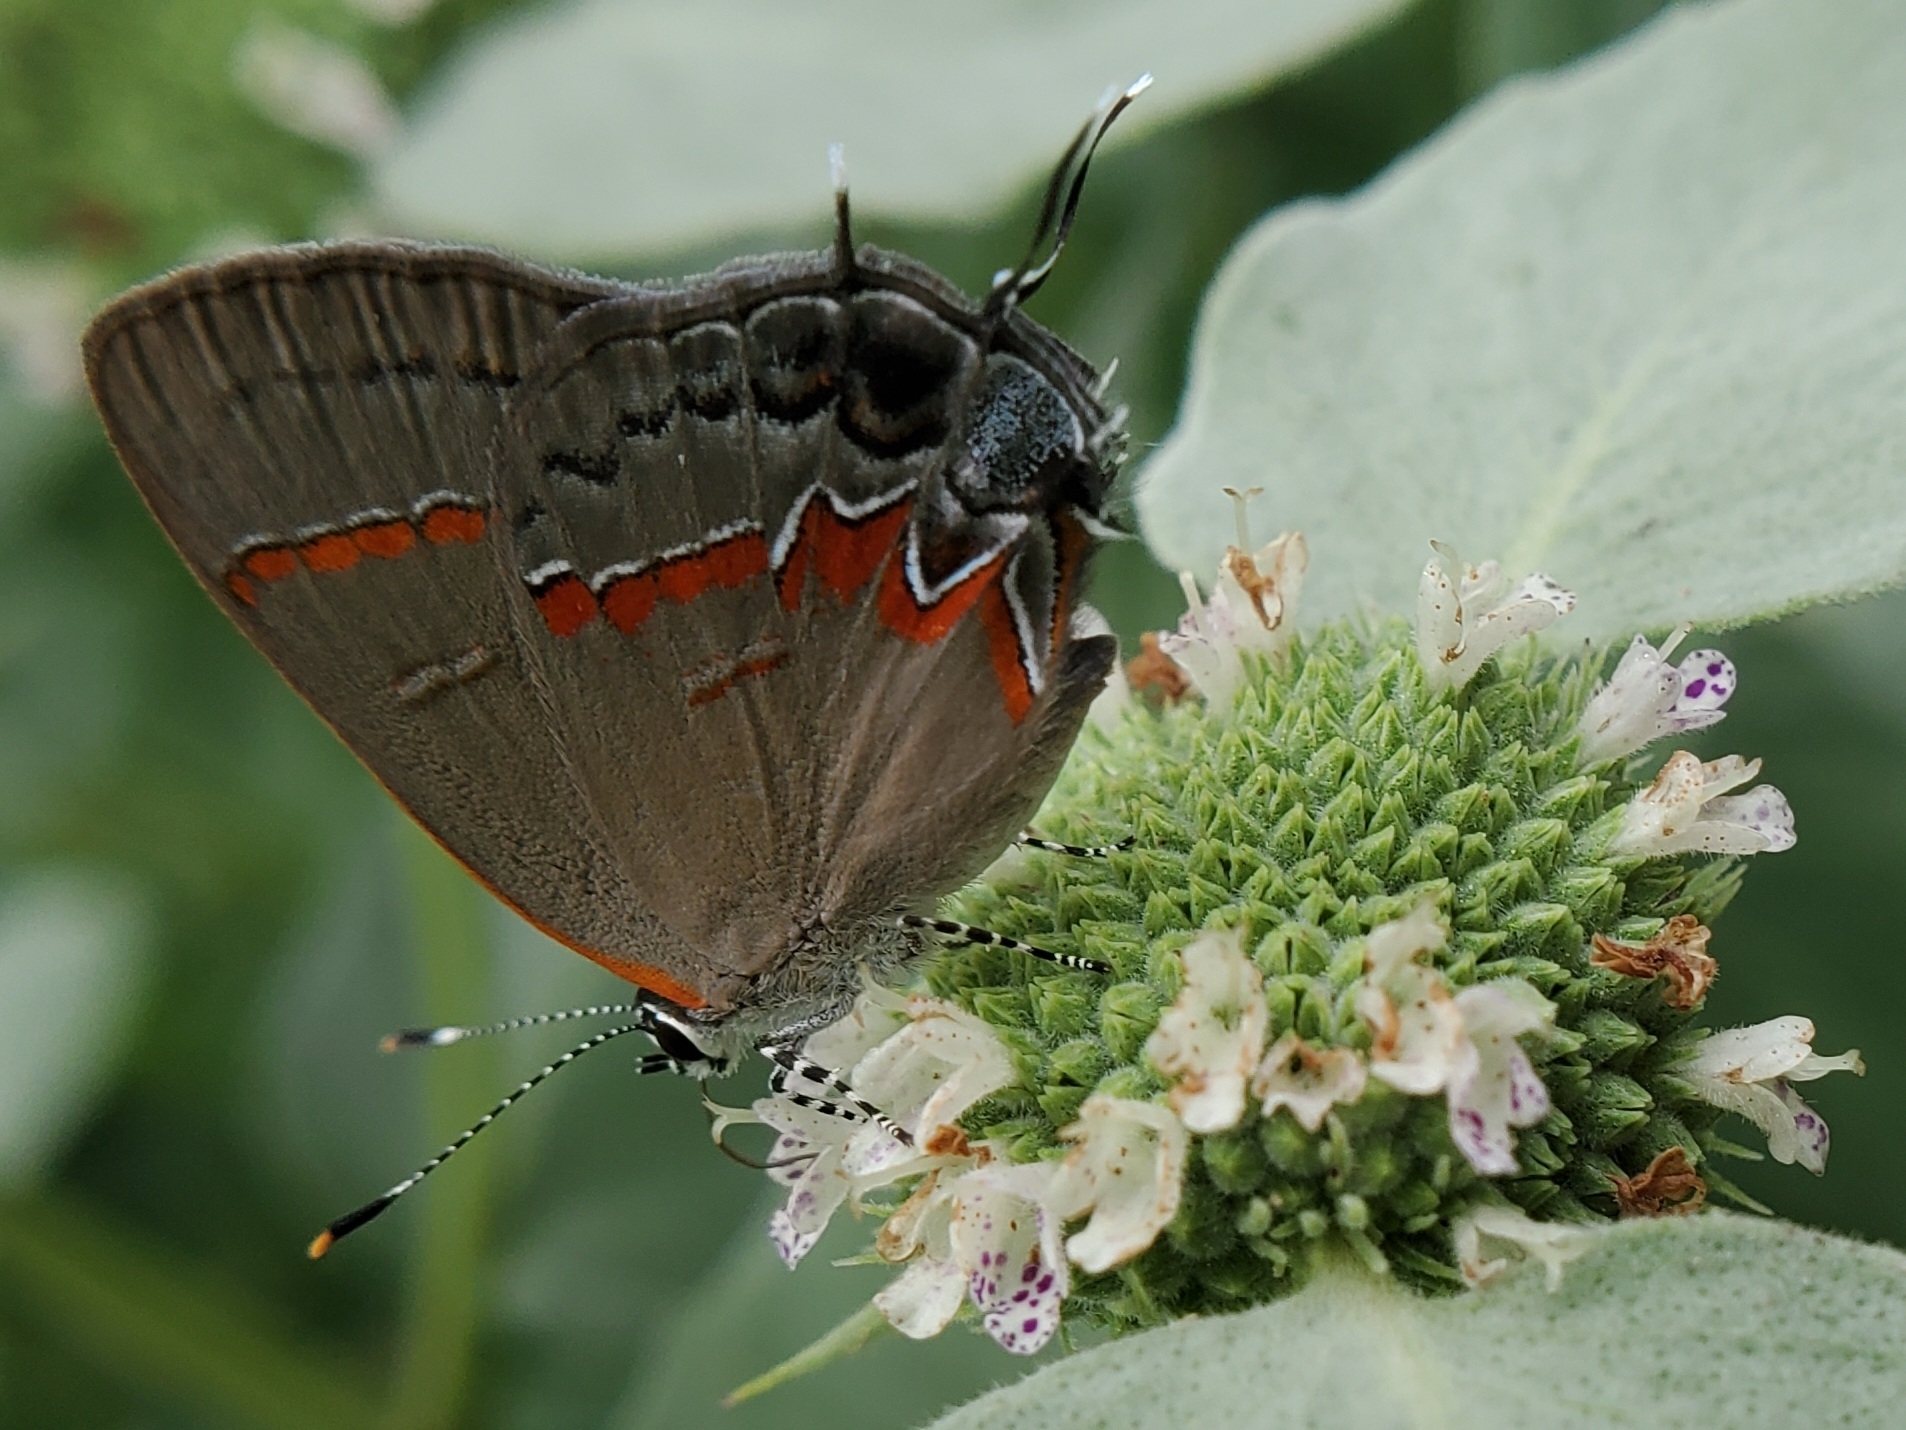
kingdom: Animalia
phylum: Arthropoda
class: Insecta
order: Lepidoptera
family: Lycaenidae
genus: Calycopis
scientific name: Calycopis cecrops
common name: Red-banded hairstreak
